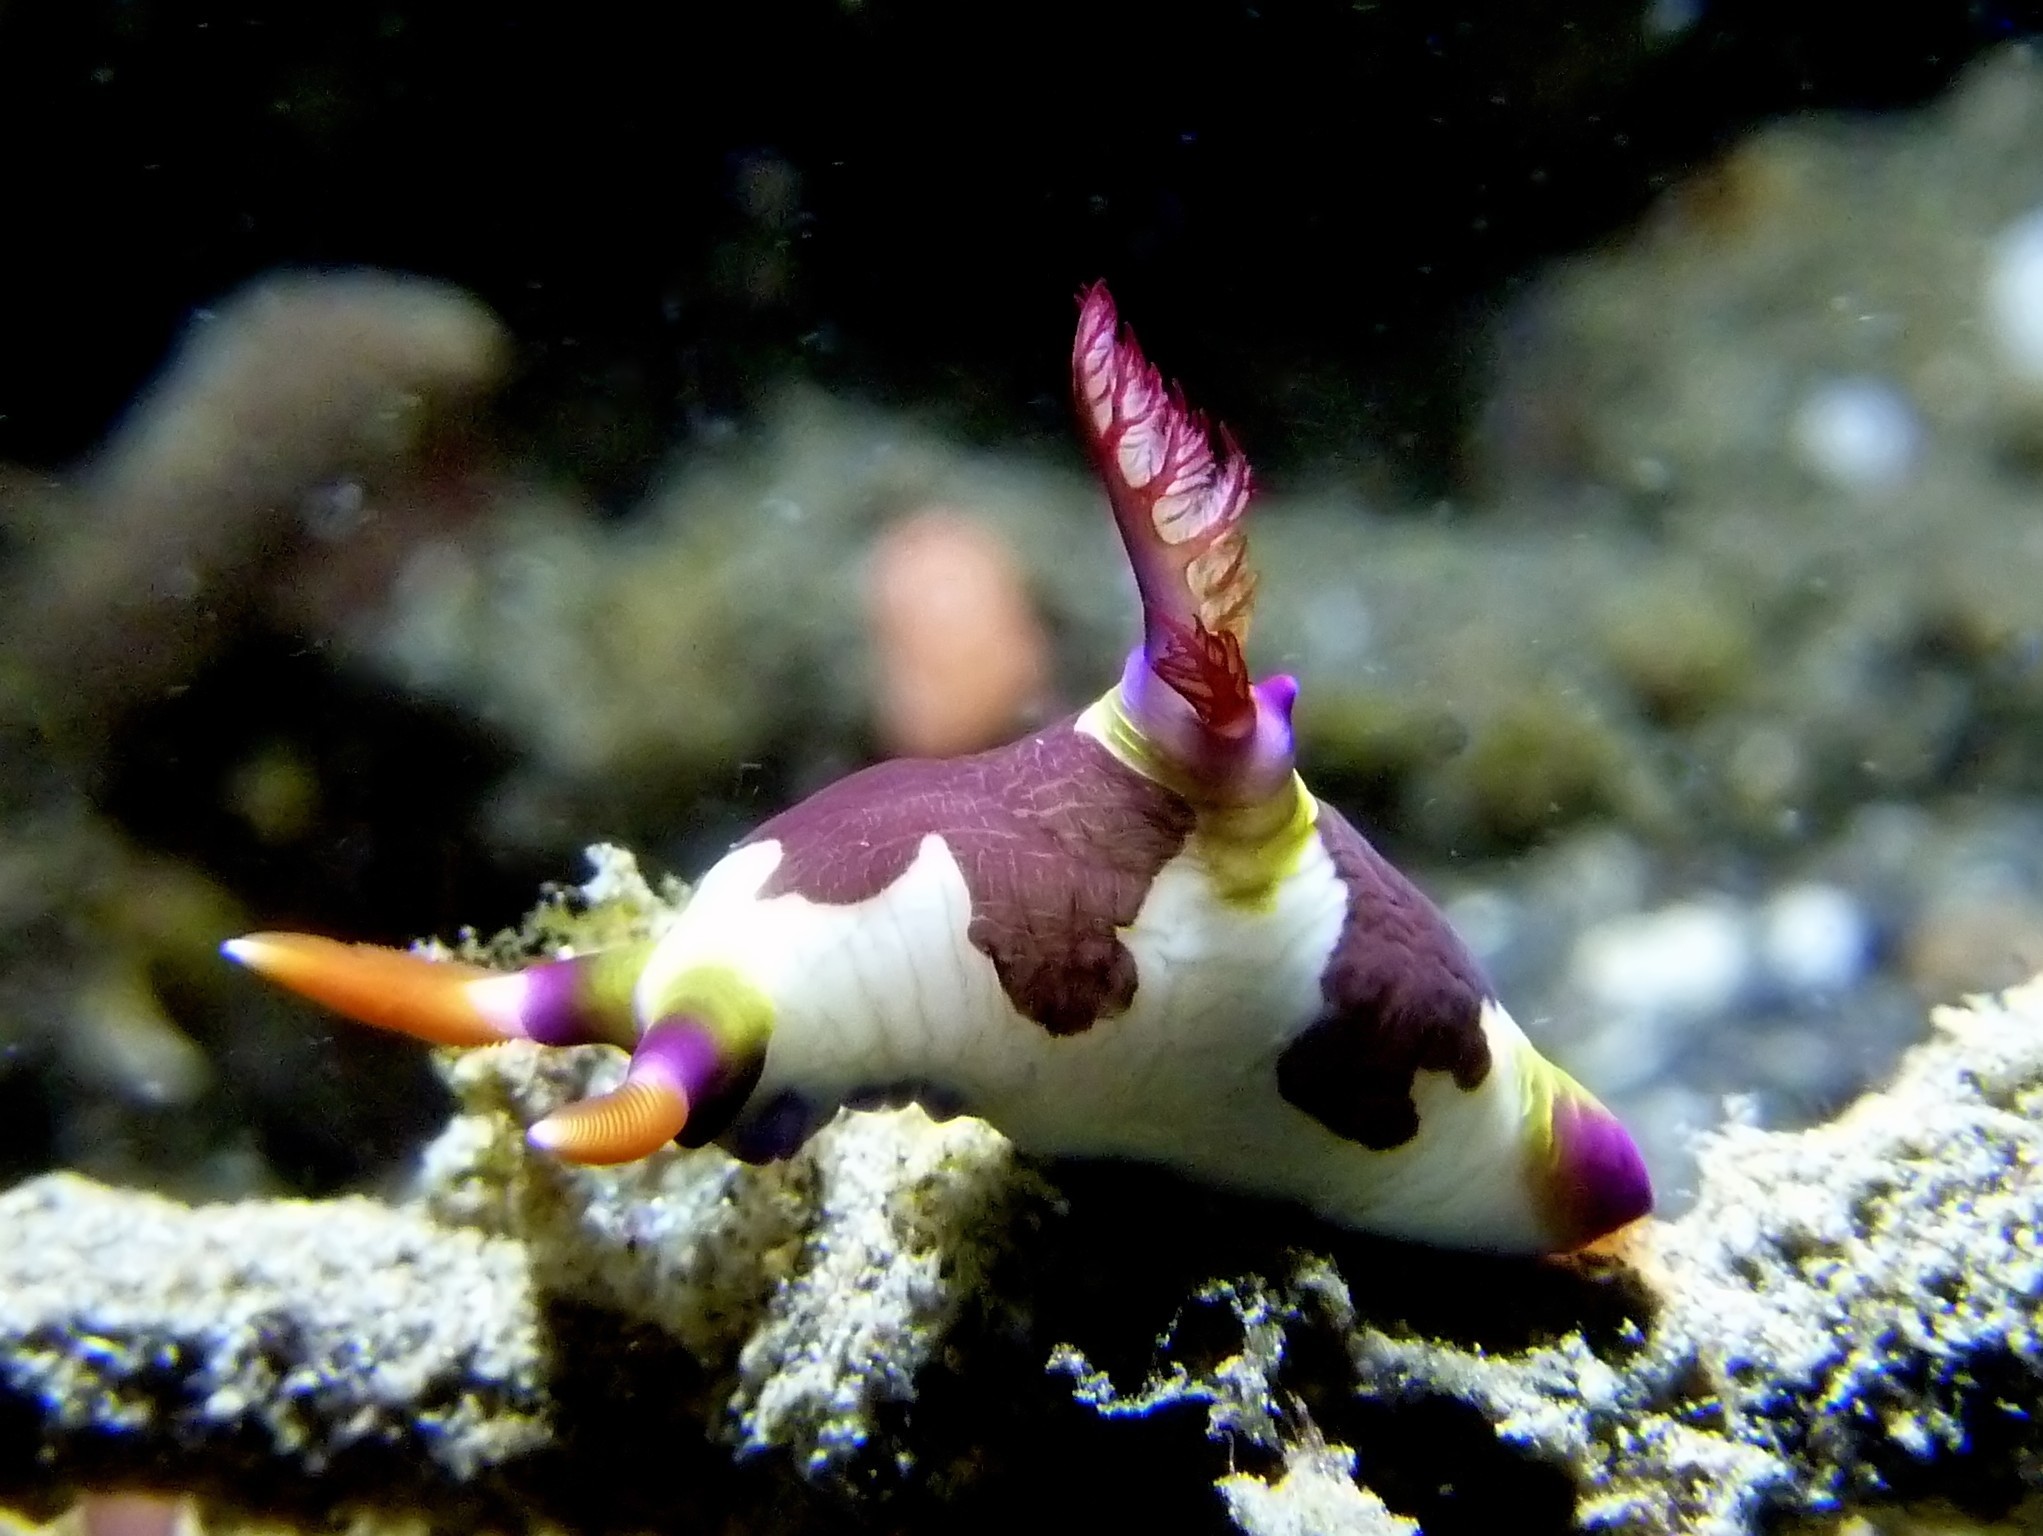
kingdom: Animalia
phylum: Mollusca
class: Gastropoda
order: Nudibranchia
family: Polyceridae
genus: Nembrotha
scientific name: Nembrotha chamberlaini
